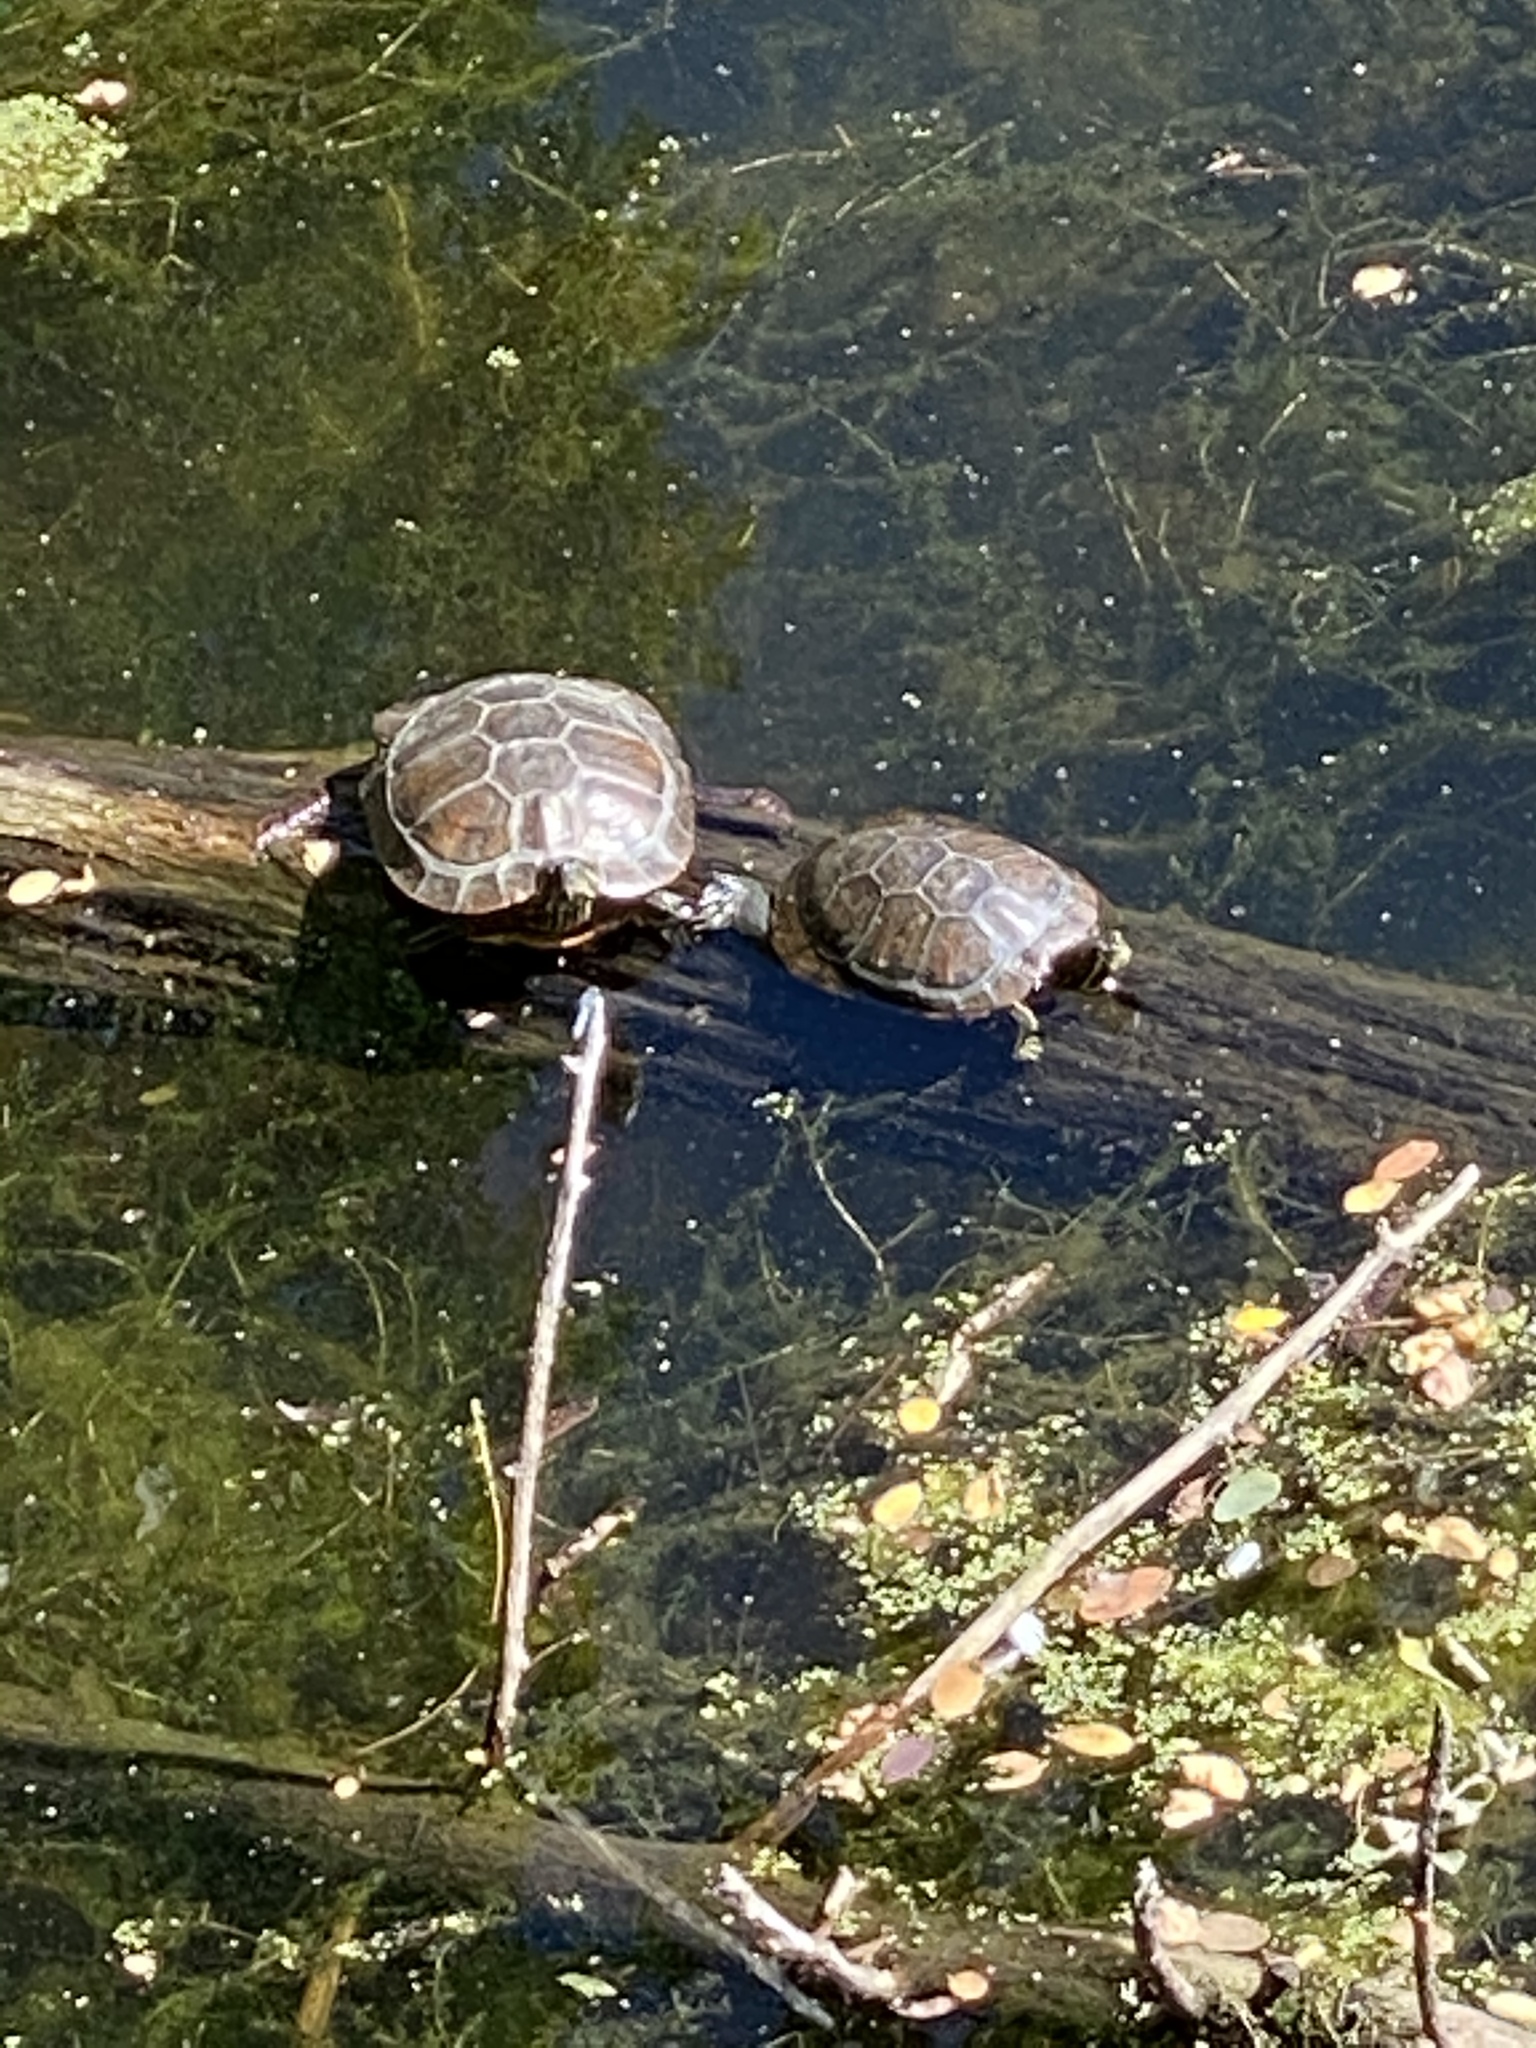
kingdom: Animalia
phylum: Chordata
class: Testudines
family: Emydidae
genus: Trachemys
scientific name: Trachemys scripta
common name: Slider
